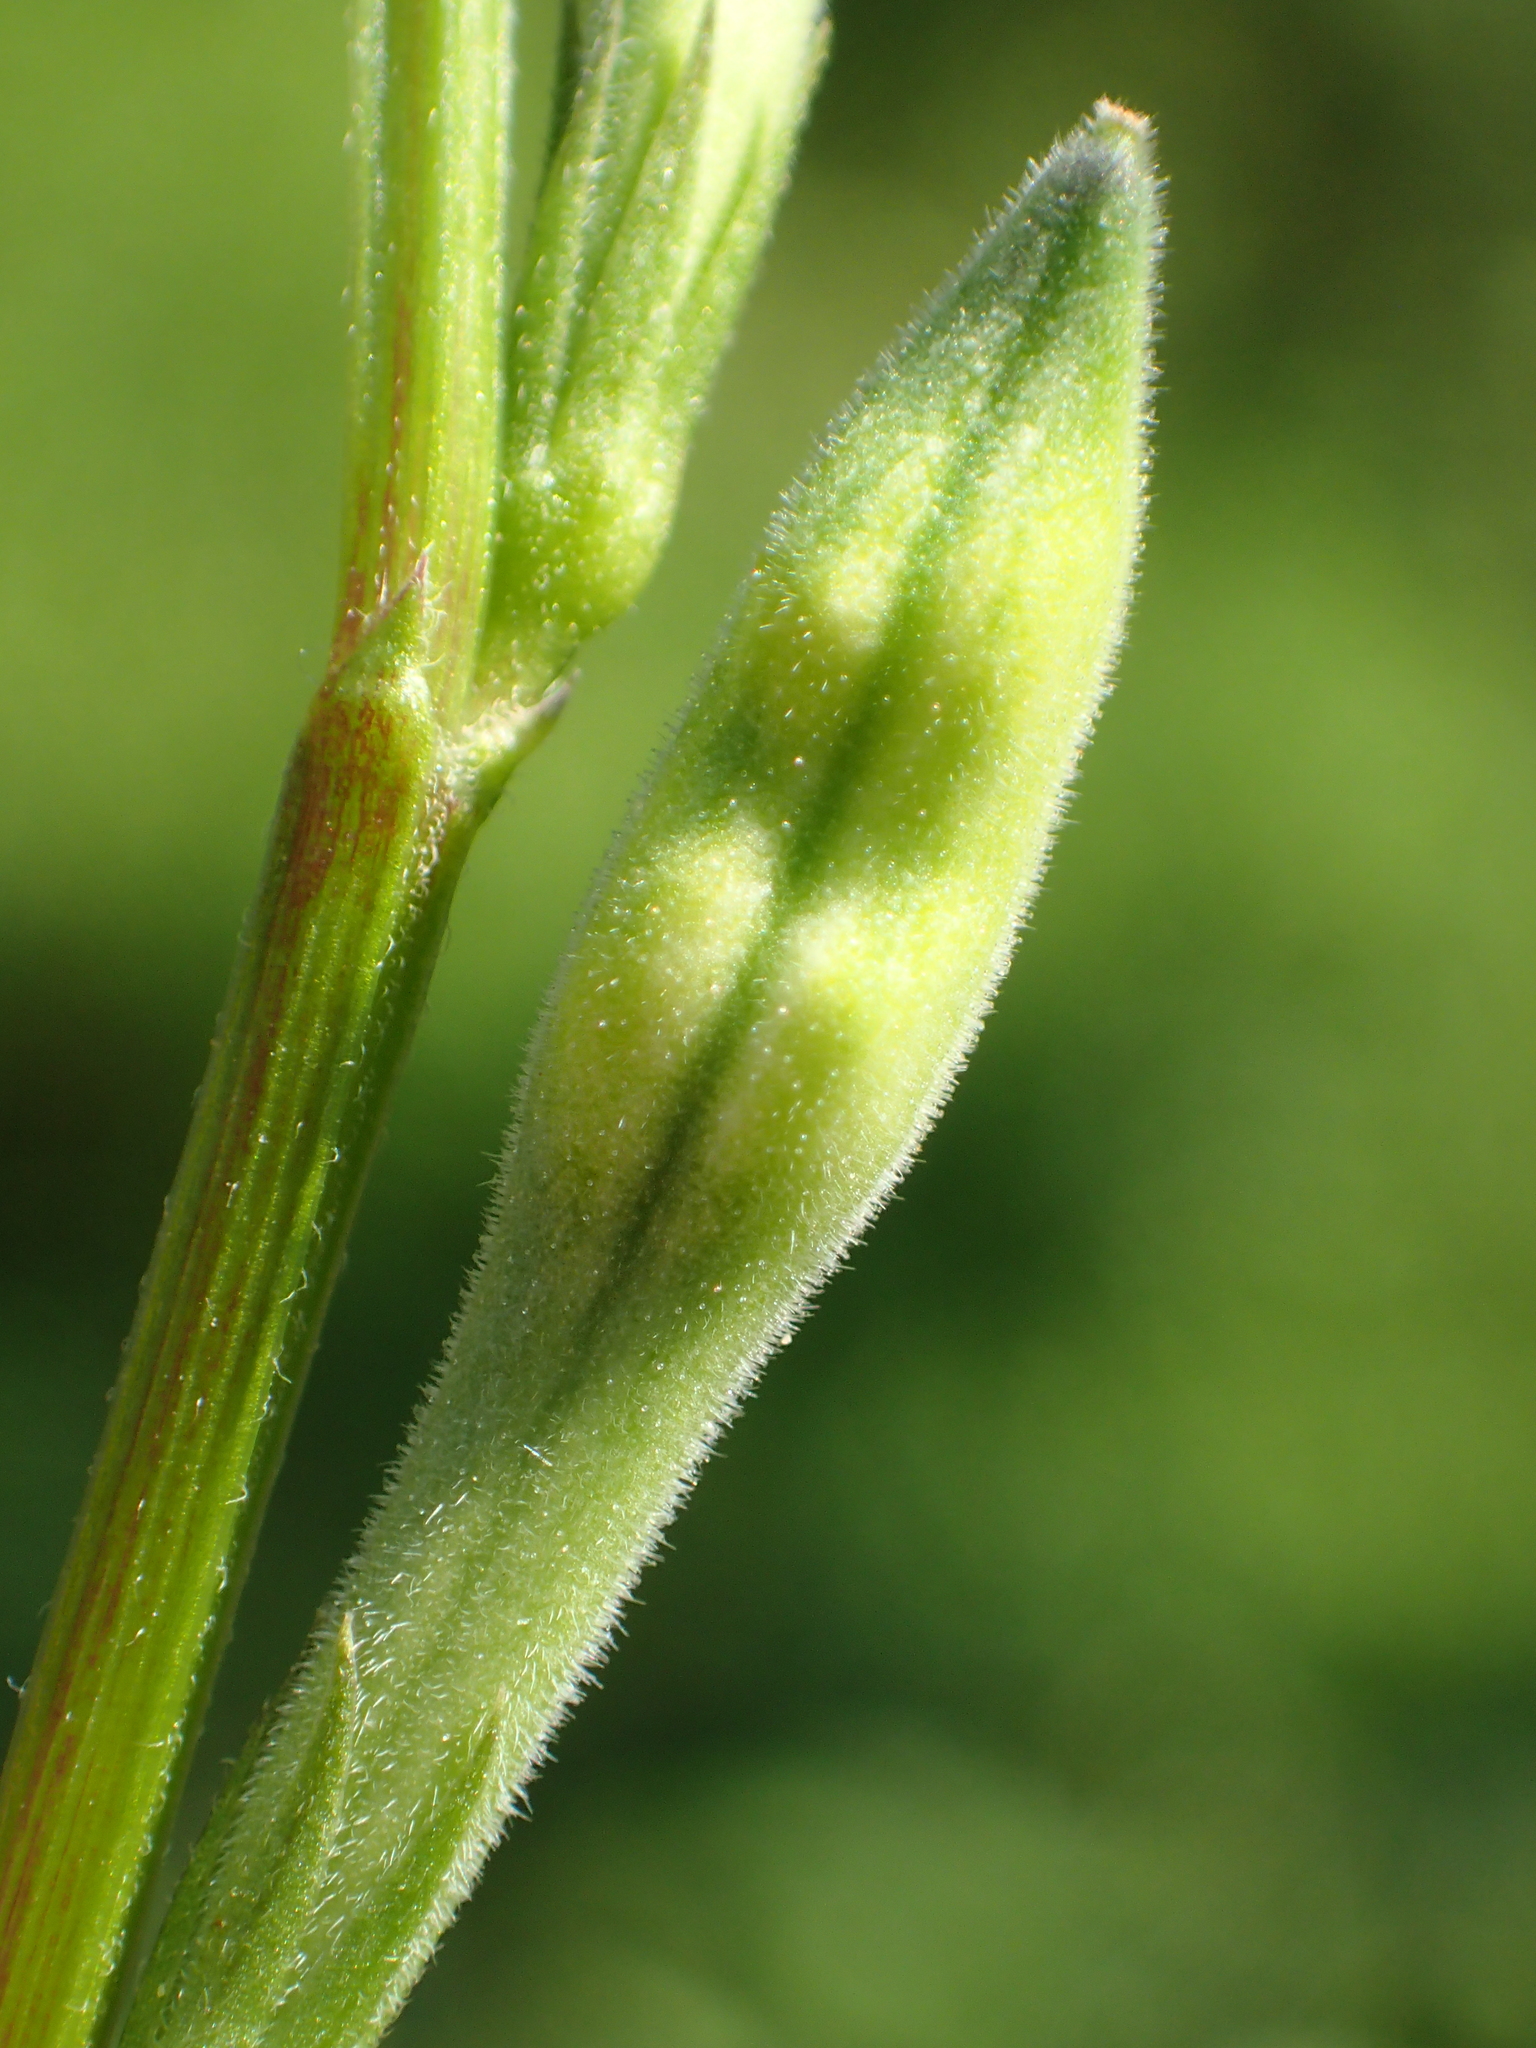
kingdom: Plantae
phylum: Tracheophyta
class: Magnoliopsida
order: Lamiales
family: Acanthaceae
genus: Asystasia
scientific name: Asystasia intrusa
